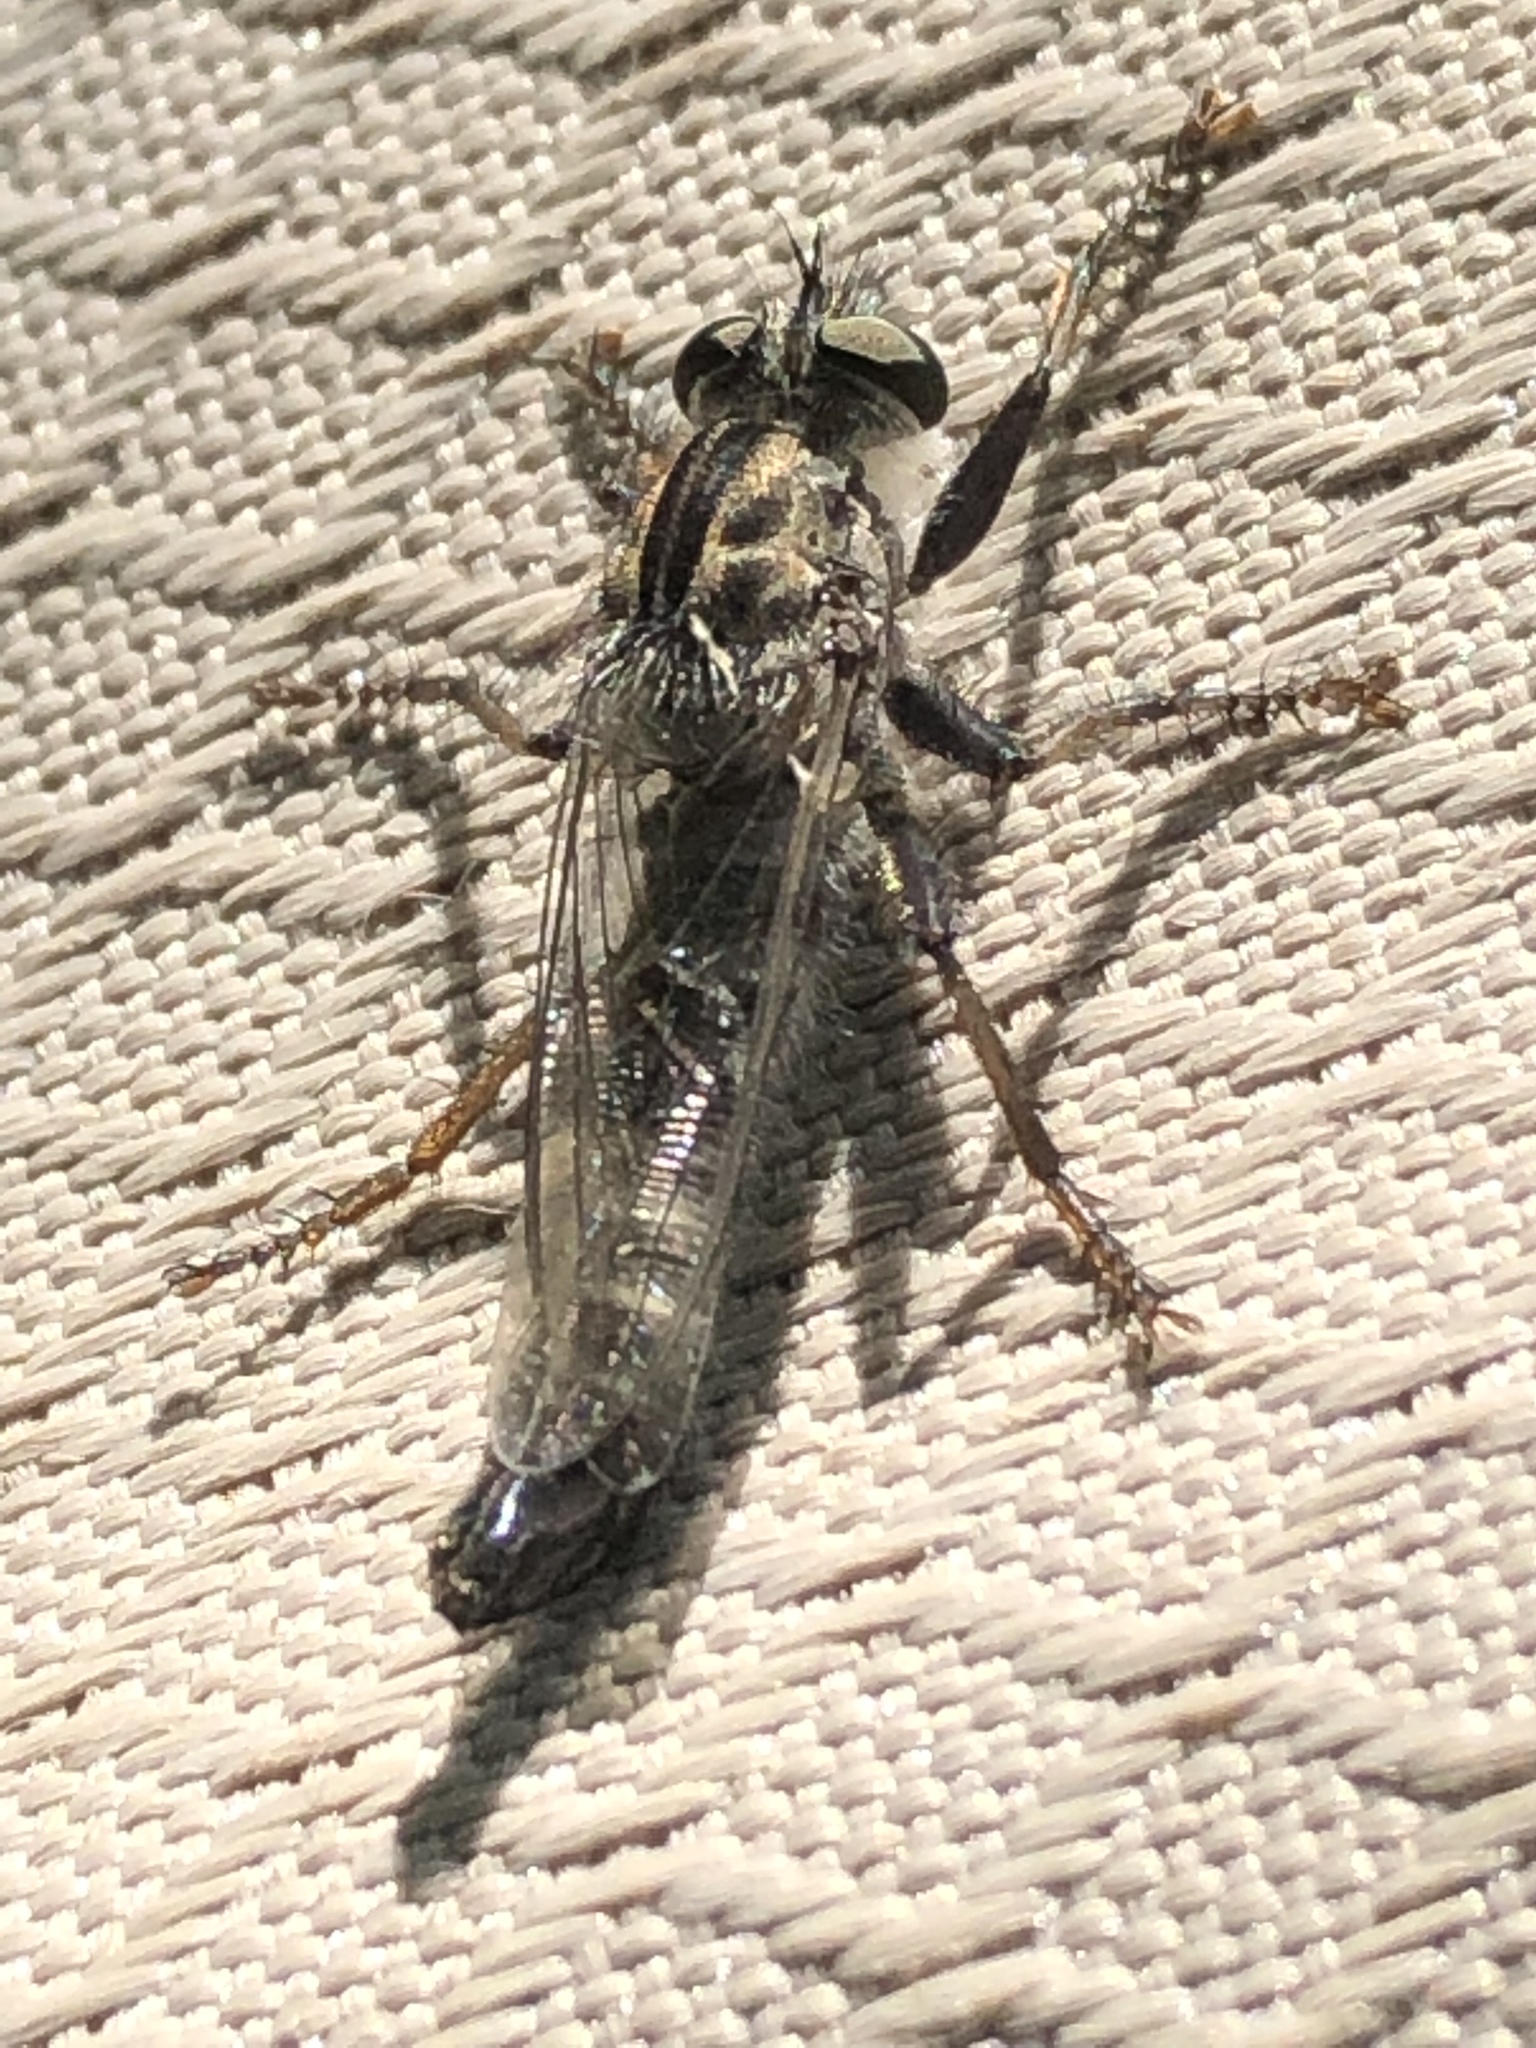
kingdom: Animalia
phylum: Arthropoda
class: Insecta
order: Diptera
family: Asilidae
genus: Efferia
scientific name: Efferia aestuans
